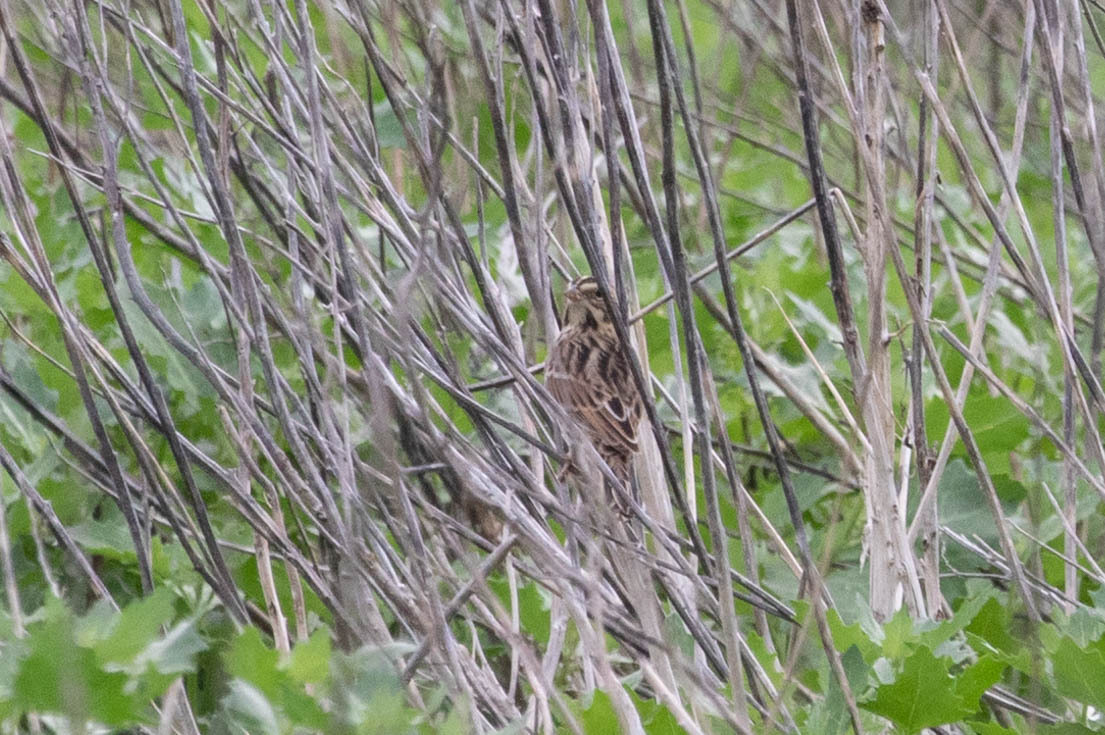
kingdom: Animalia
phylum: Chordata
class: Aves
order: Passeriformes
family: Passerellidae
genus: Passerculus
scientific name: Passerculus sandwichensis
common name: Savannah sparrow
